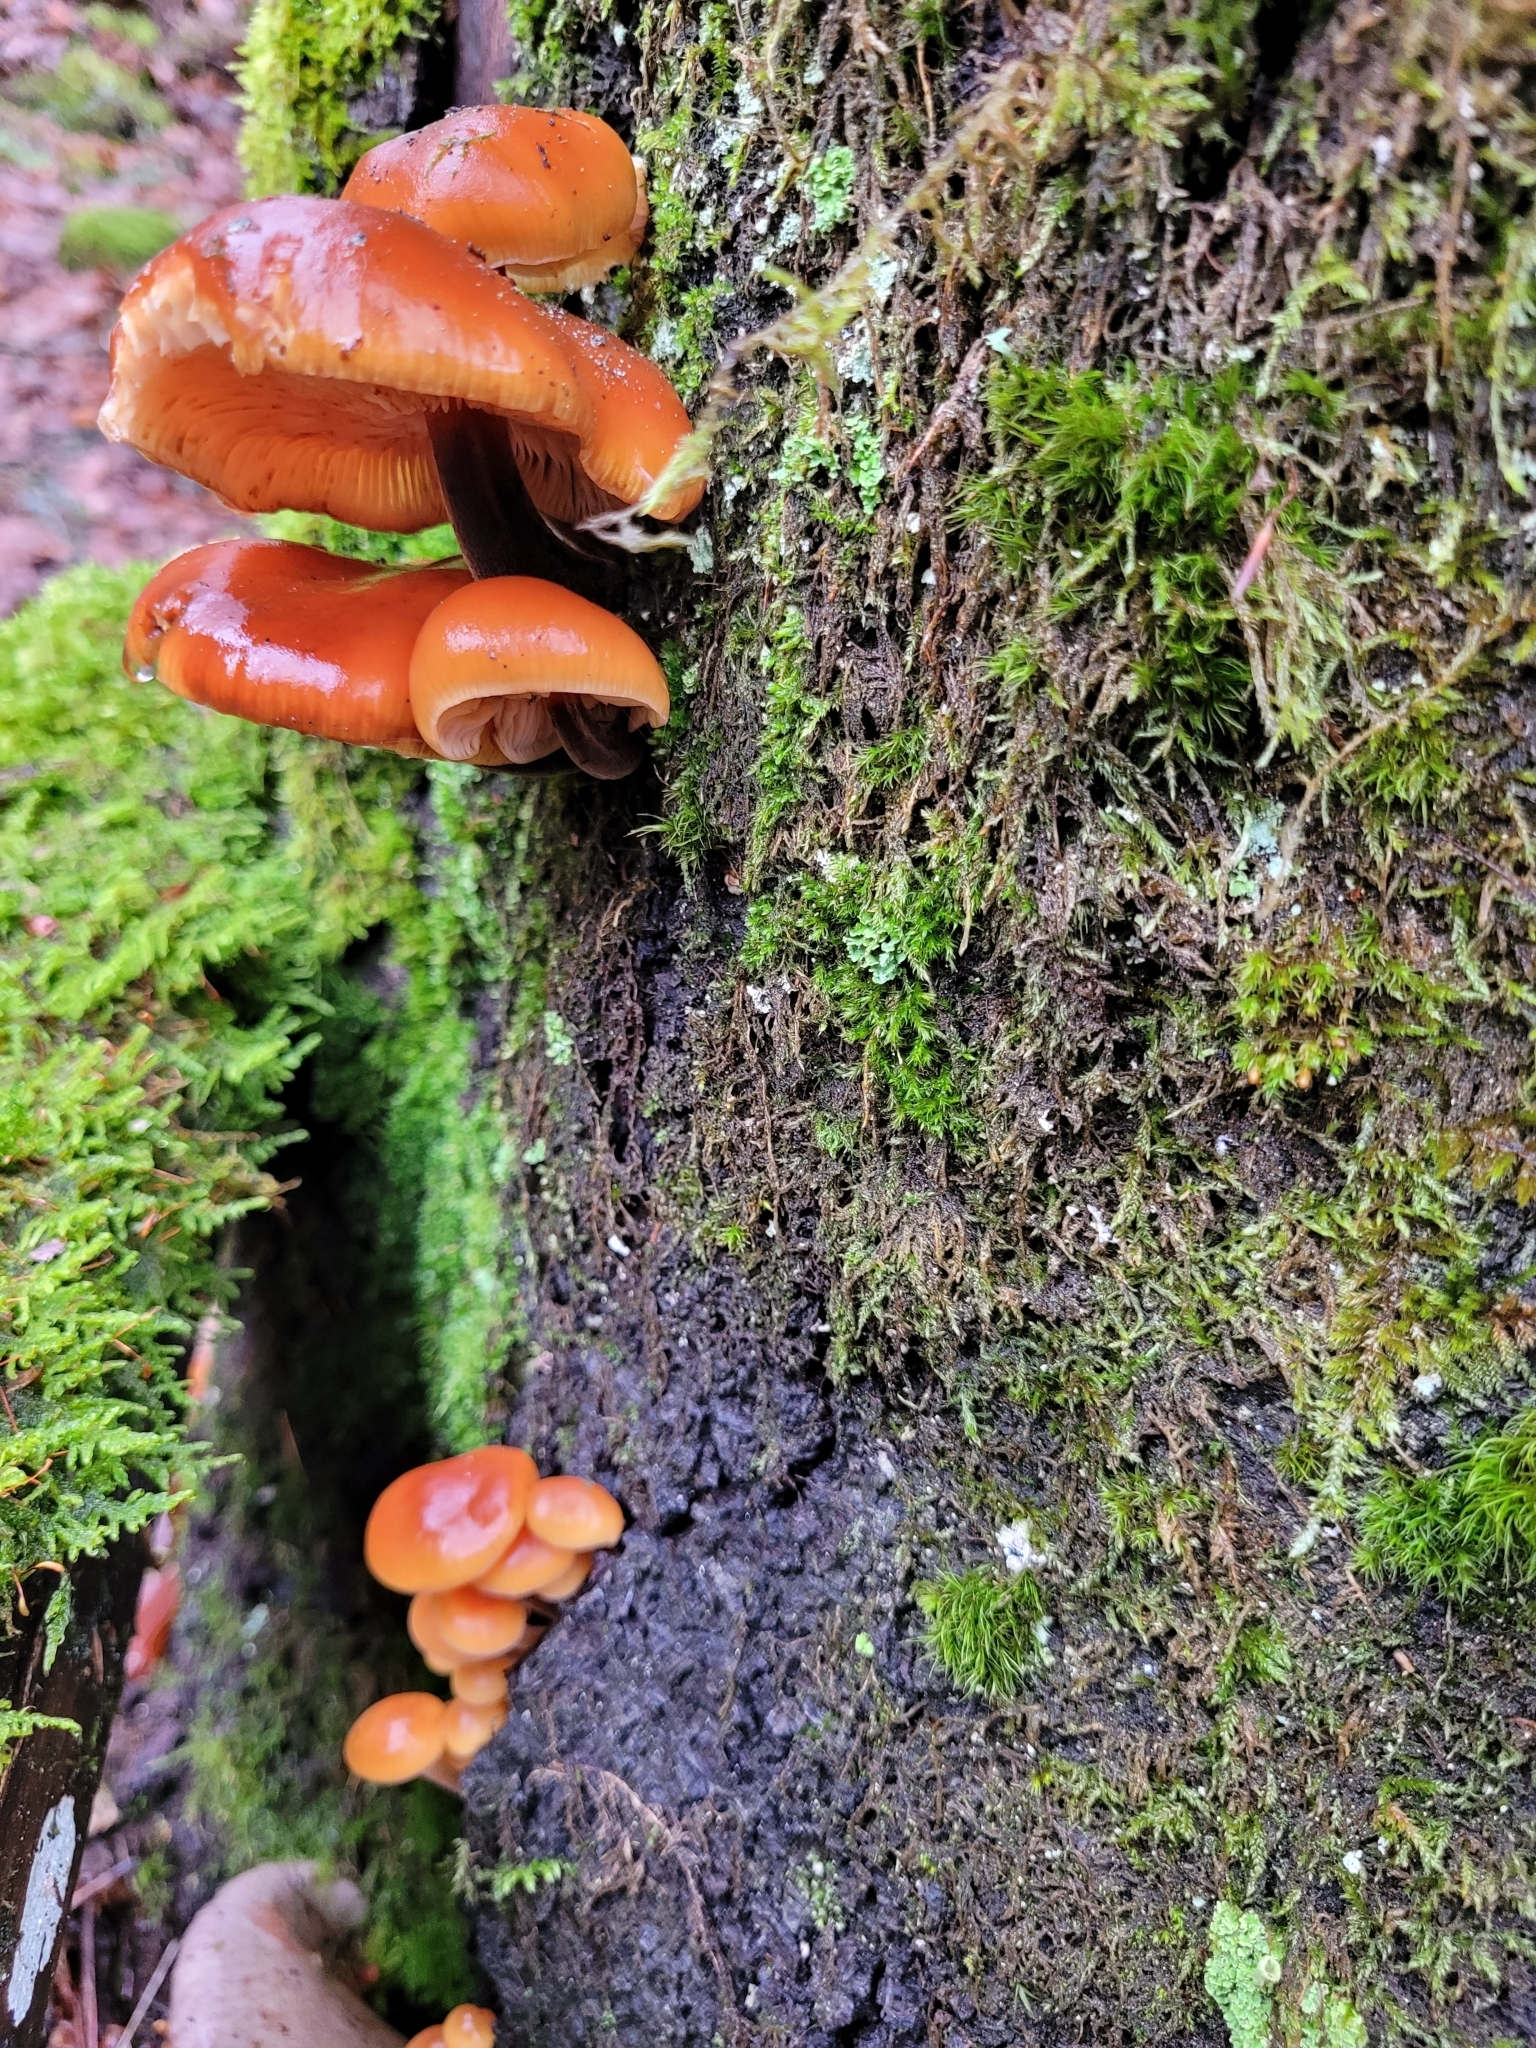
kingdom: Fungi
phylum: Basidiomycota
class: Agaricomycetes
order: Agaricales
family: Physalacriaceae
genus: Flammulina
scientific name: Flammulina
